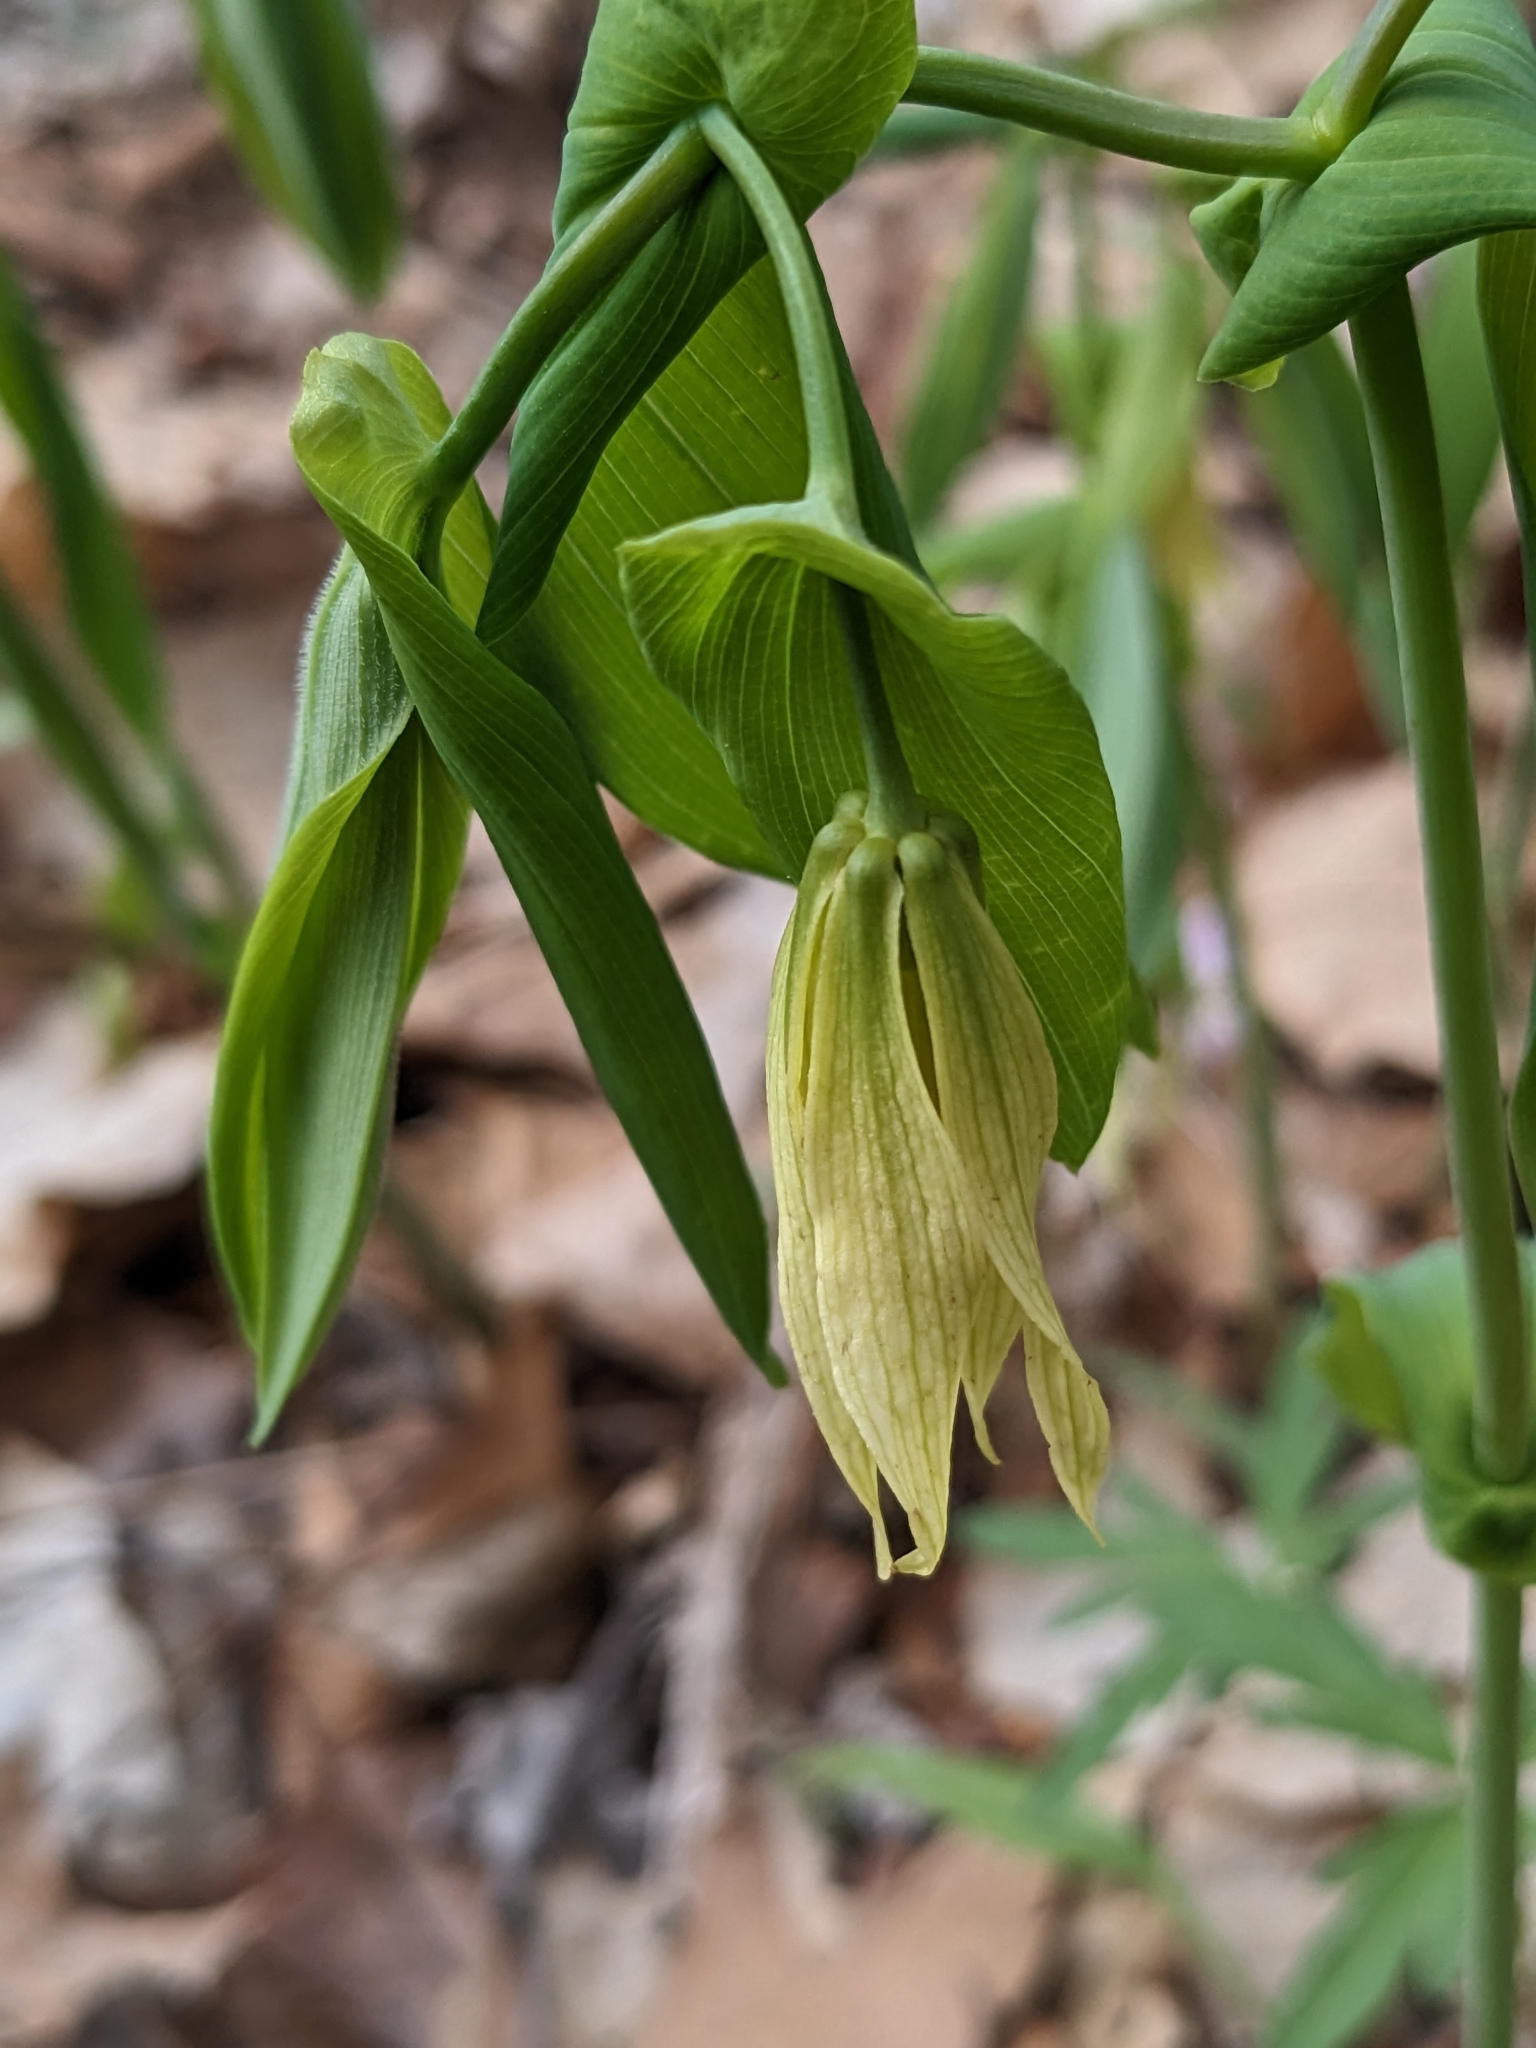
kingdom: Plantae
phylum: Tracheophyta
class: Liliopsida
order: Liliales
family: Colchicaceae
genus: Uvularia
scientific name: Uvularia grandiflora
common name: Bellwort
